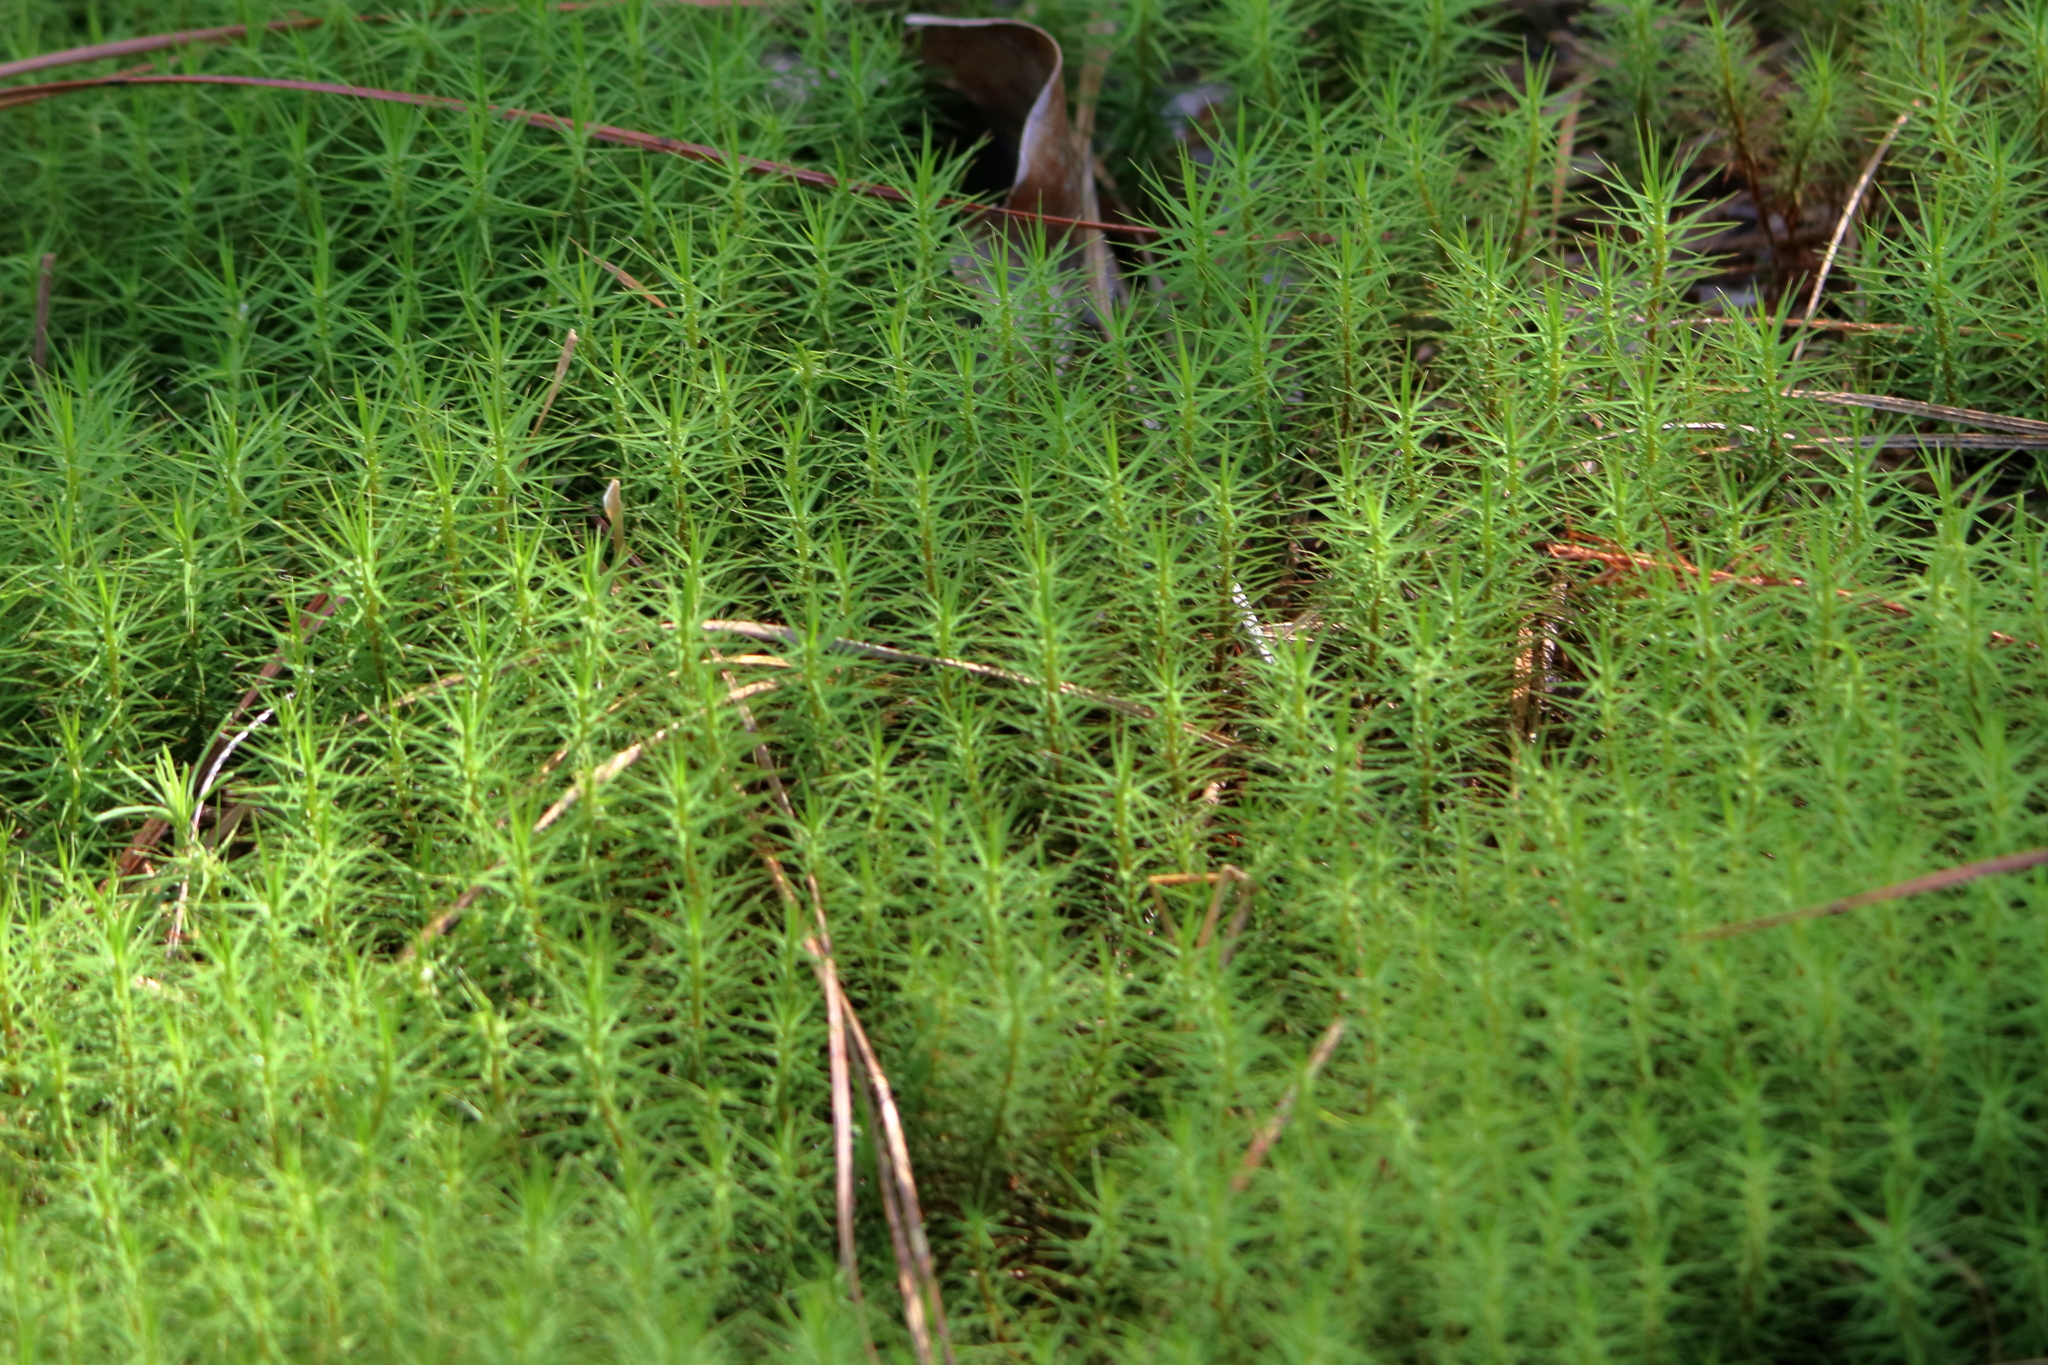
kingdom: Plantae
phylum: Bryophyta
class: Polytrichopsida
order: Polytrichales
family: Polytrichaceae
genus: Polytrichum
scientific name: Polytrichum commune
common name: Common haircap
